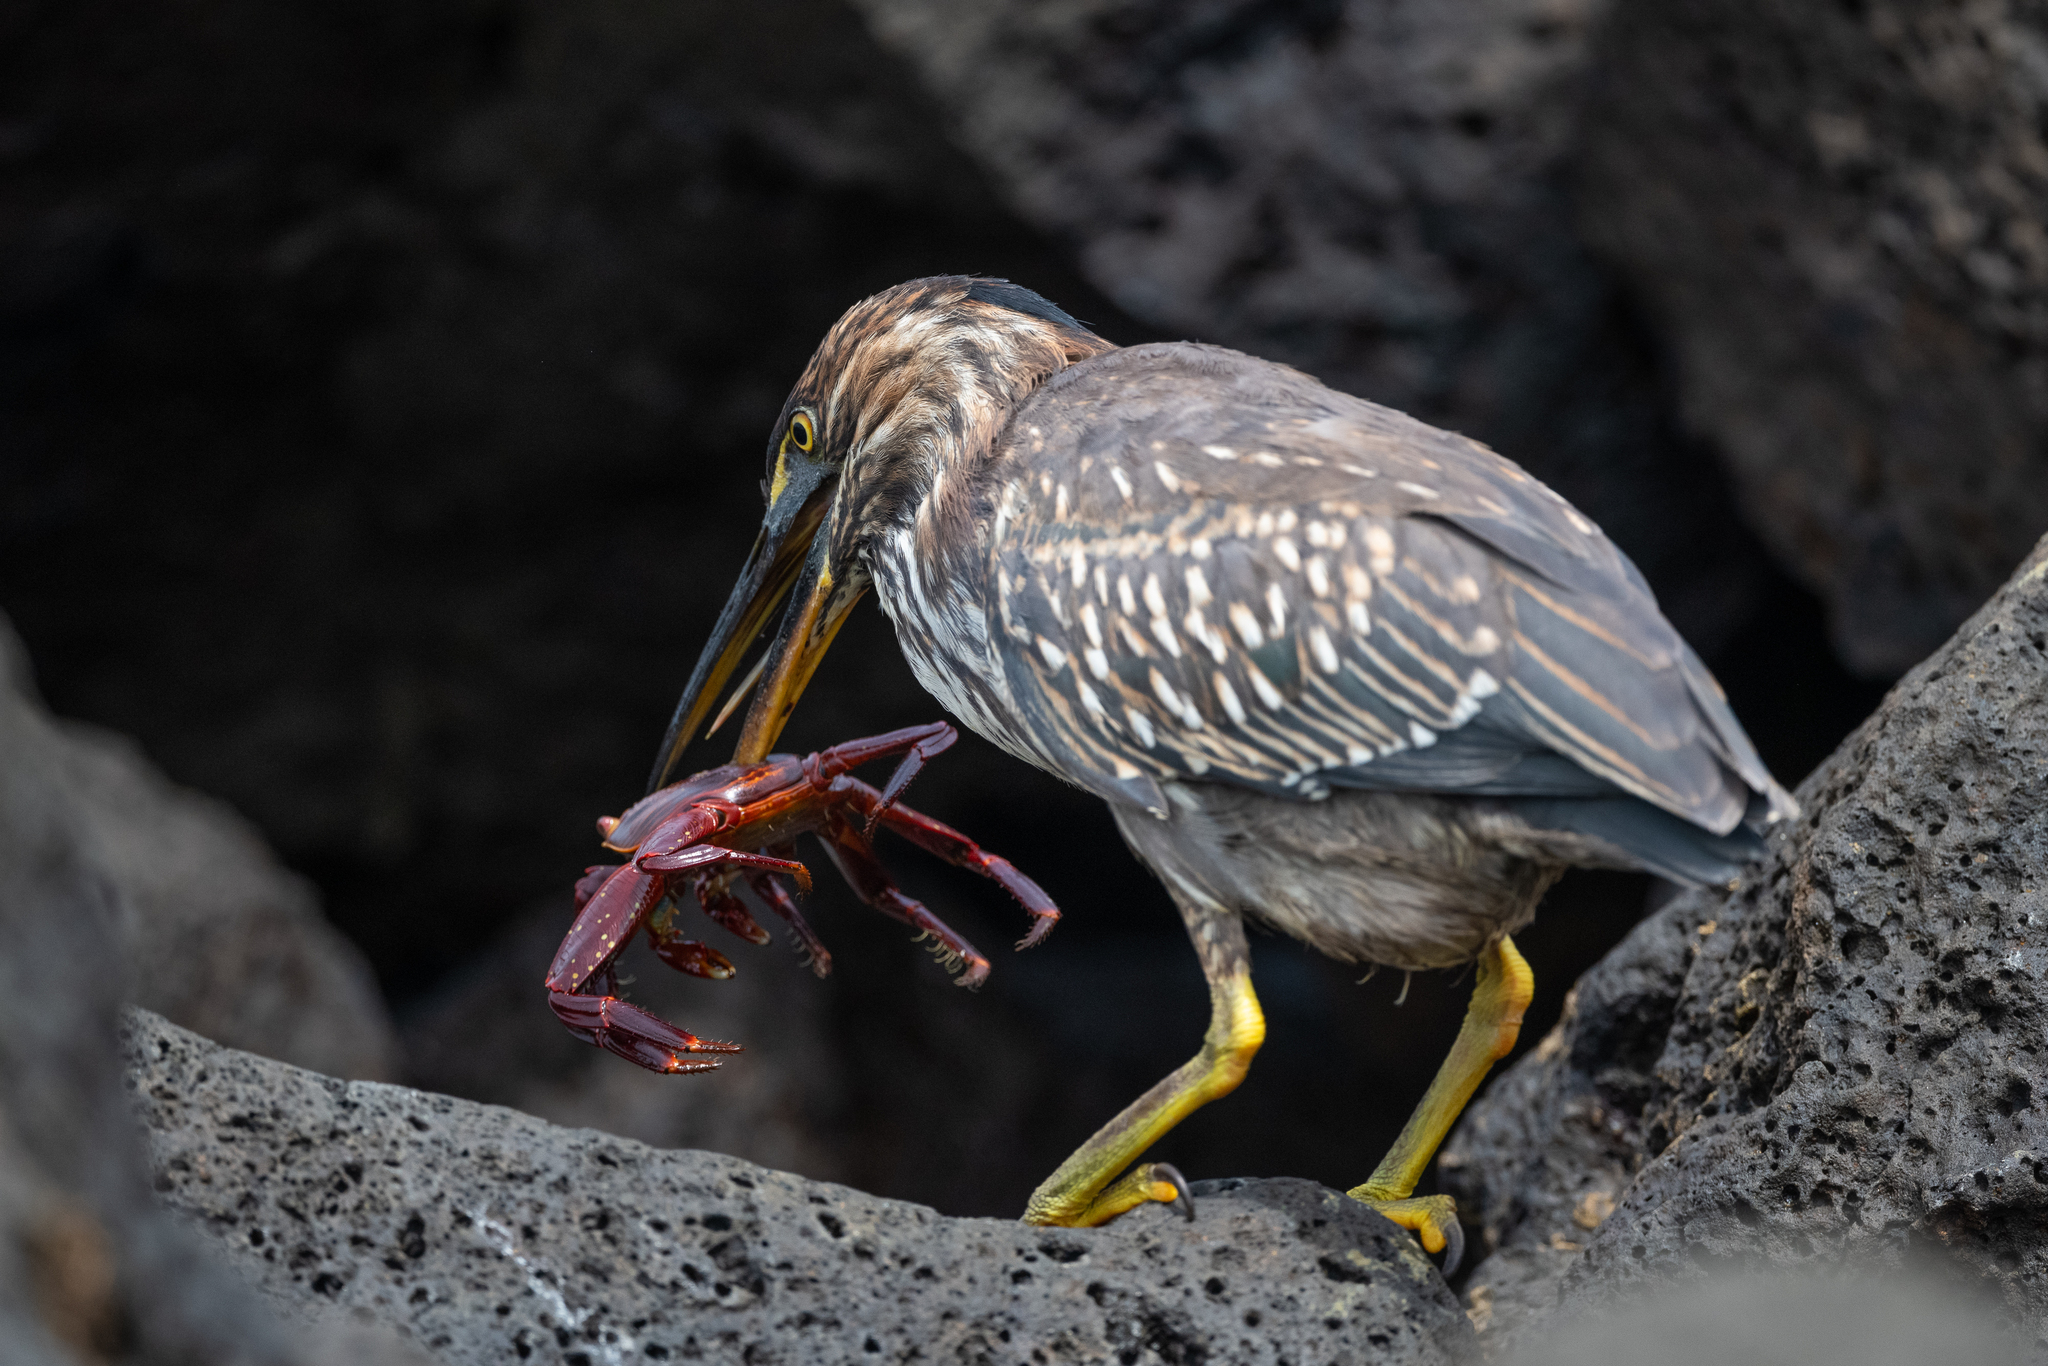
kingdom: Animalia
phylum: Chordata
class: Aves
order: Pelecaniformes
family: Ardeidae
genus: Butorides
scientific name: Butorides striata
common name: Striated heron
